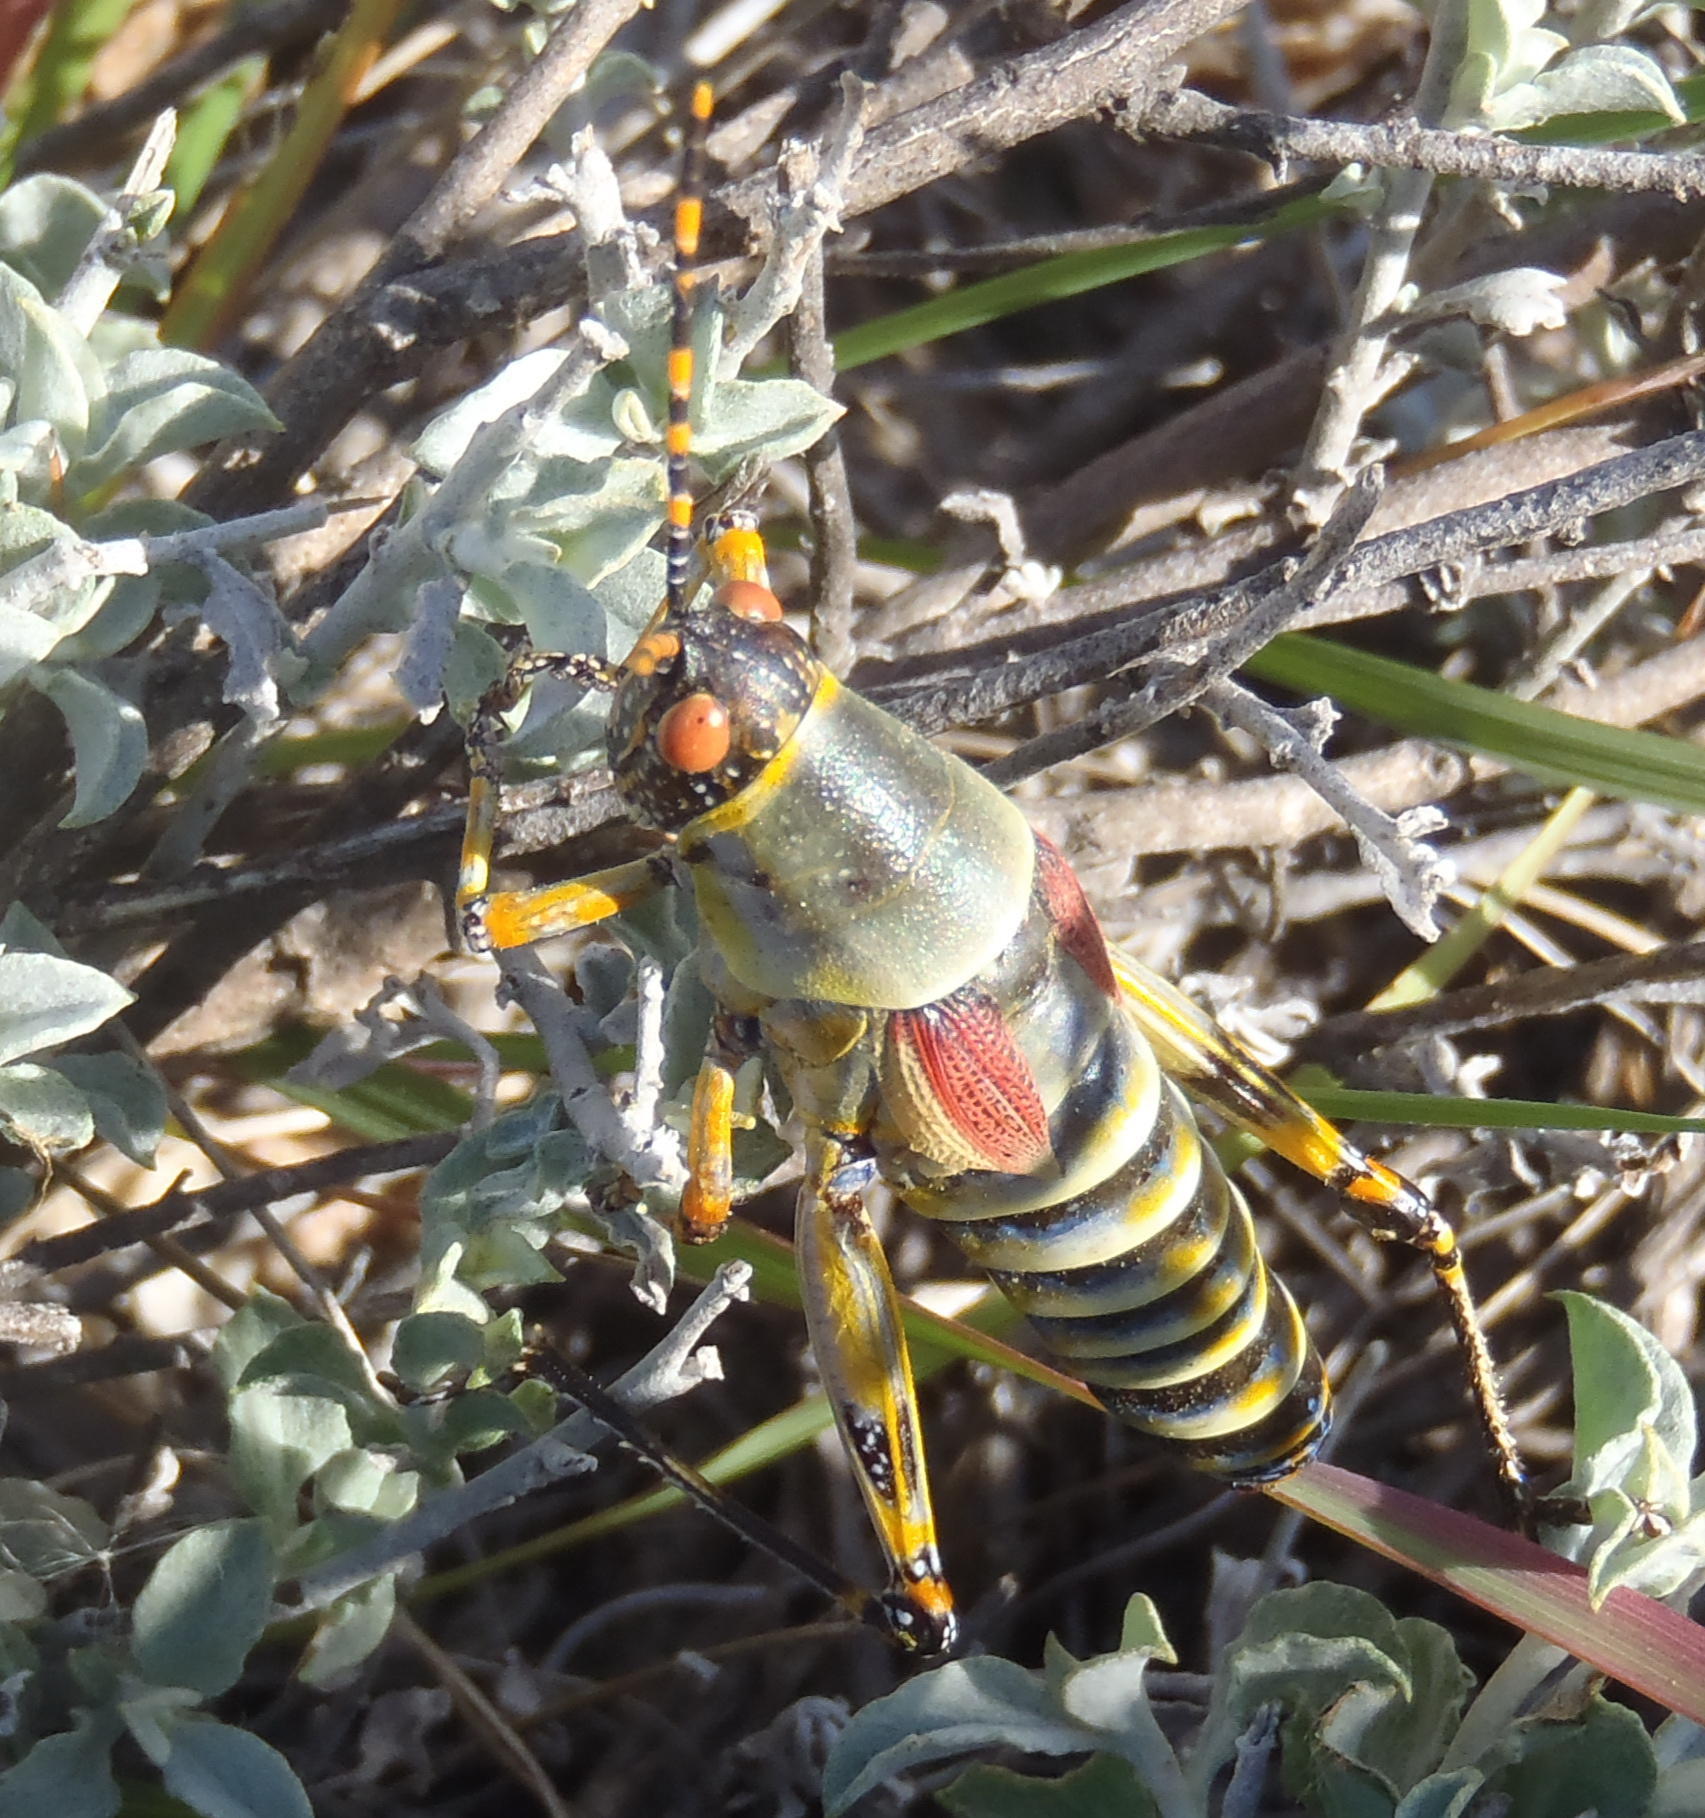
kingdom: Animalia
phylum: Arthropoda
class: Insecta
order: Orthoptera
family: Pyrgomorphidae
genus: Zonocerus
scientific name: Zonocerus elegans
